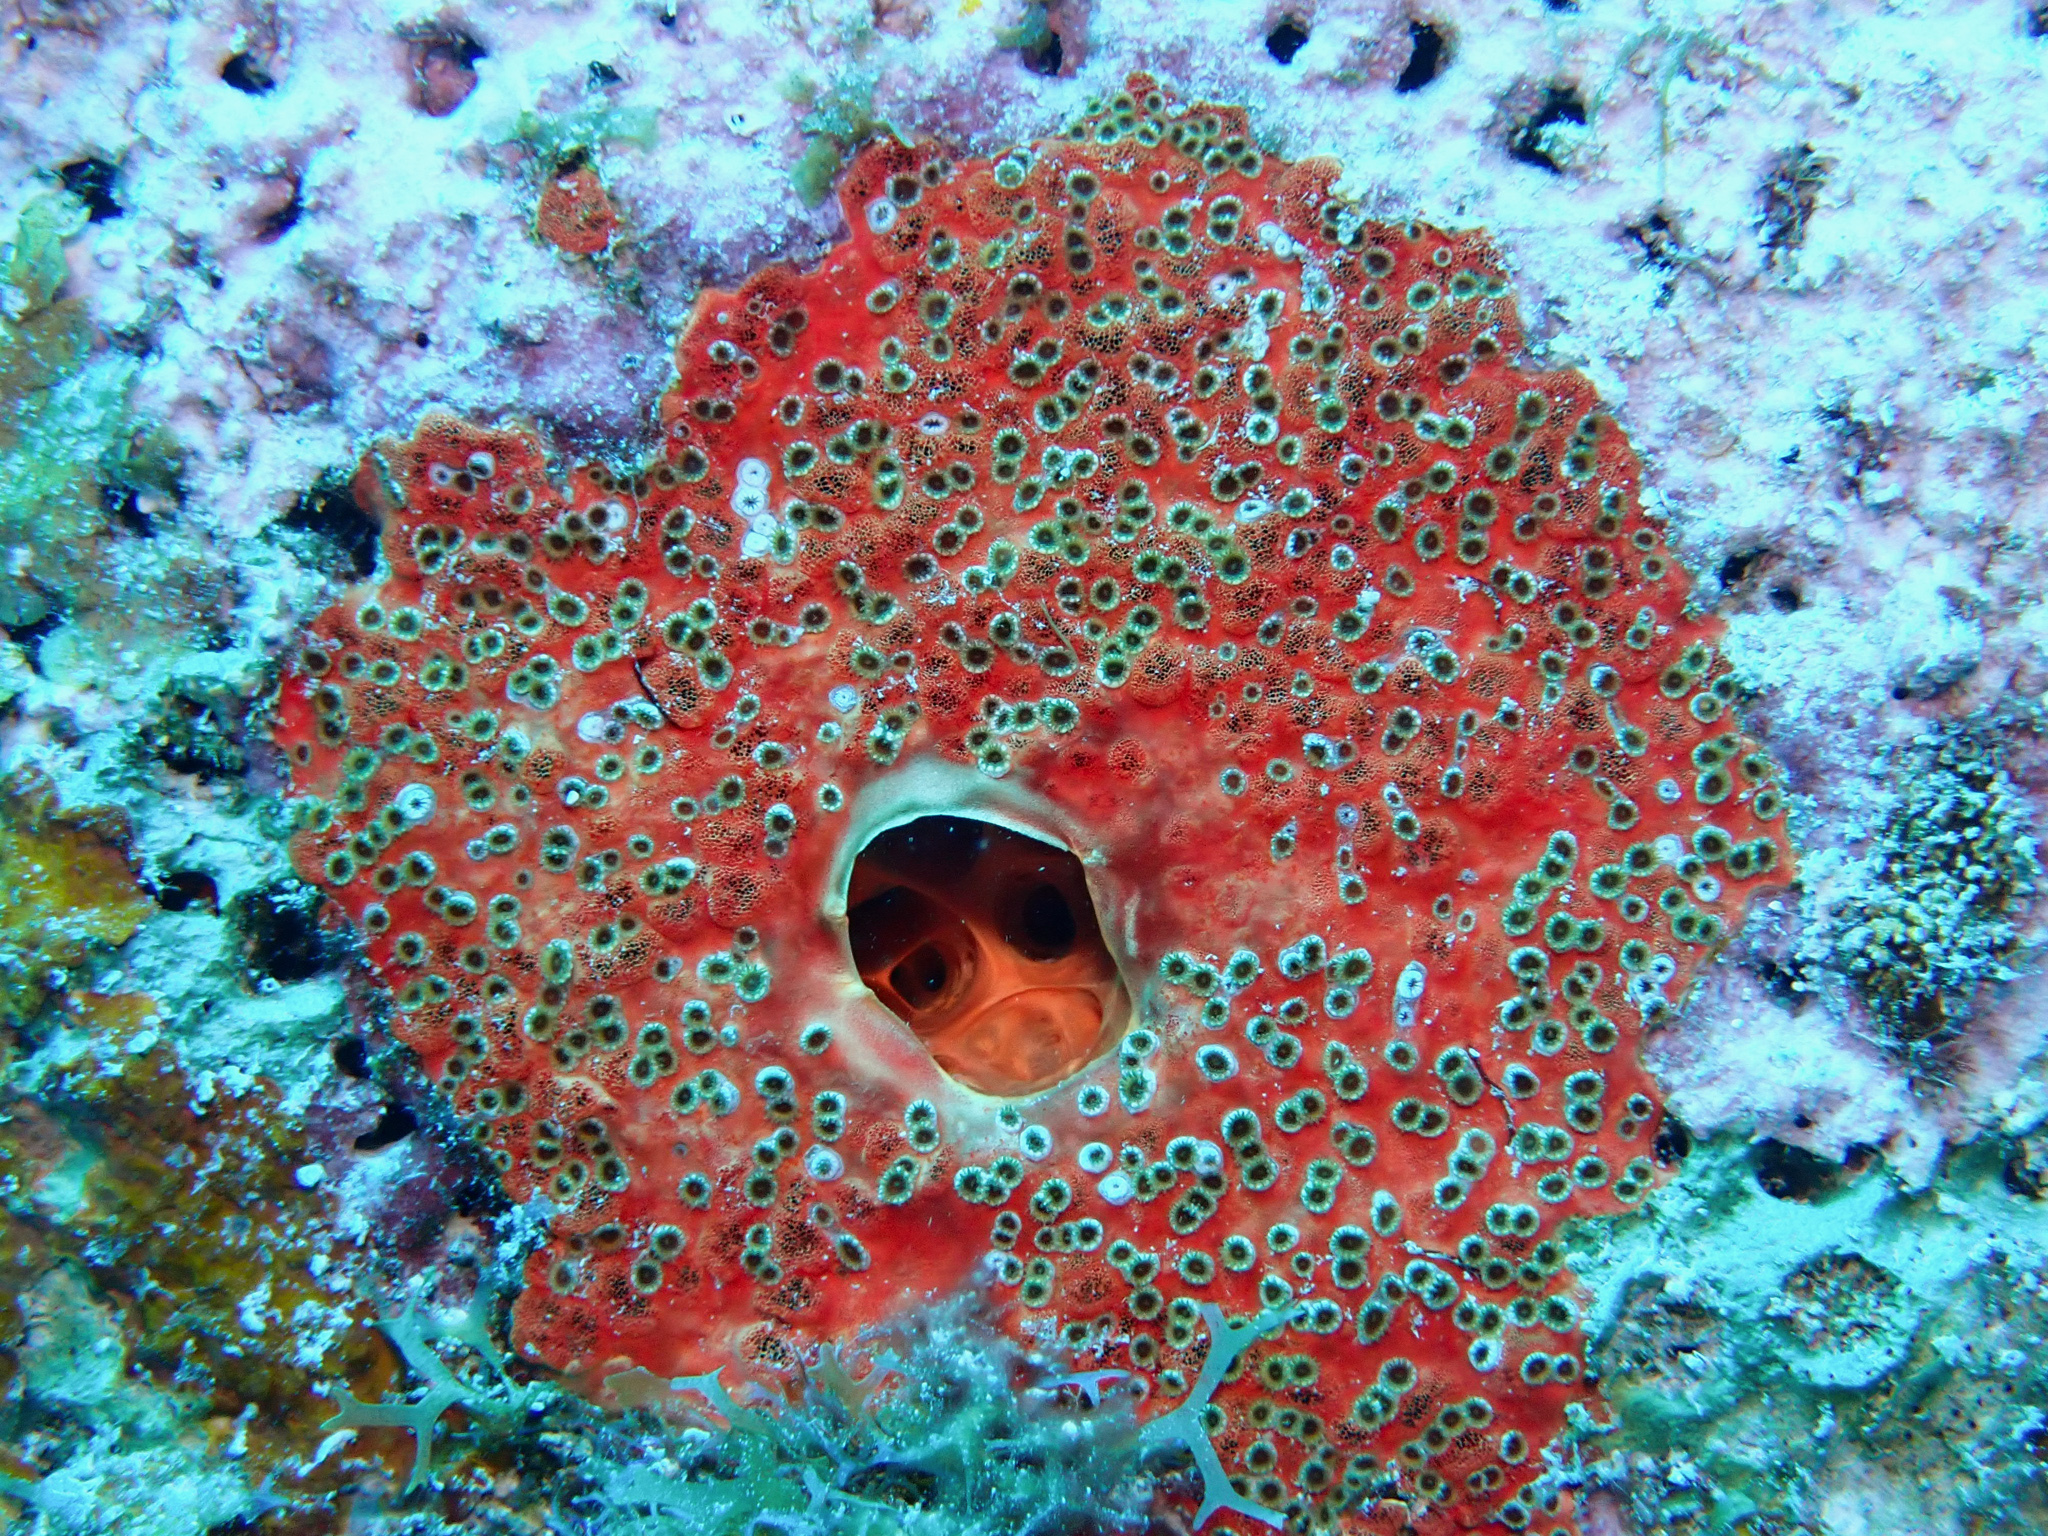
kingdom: Animalia
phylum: Porifera
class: Demospongiae
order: Clionaida
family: Clionaidae
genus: Cliothosa
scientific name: Cliothosa delitrix
